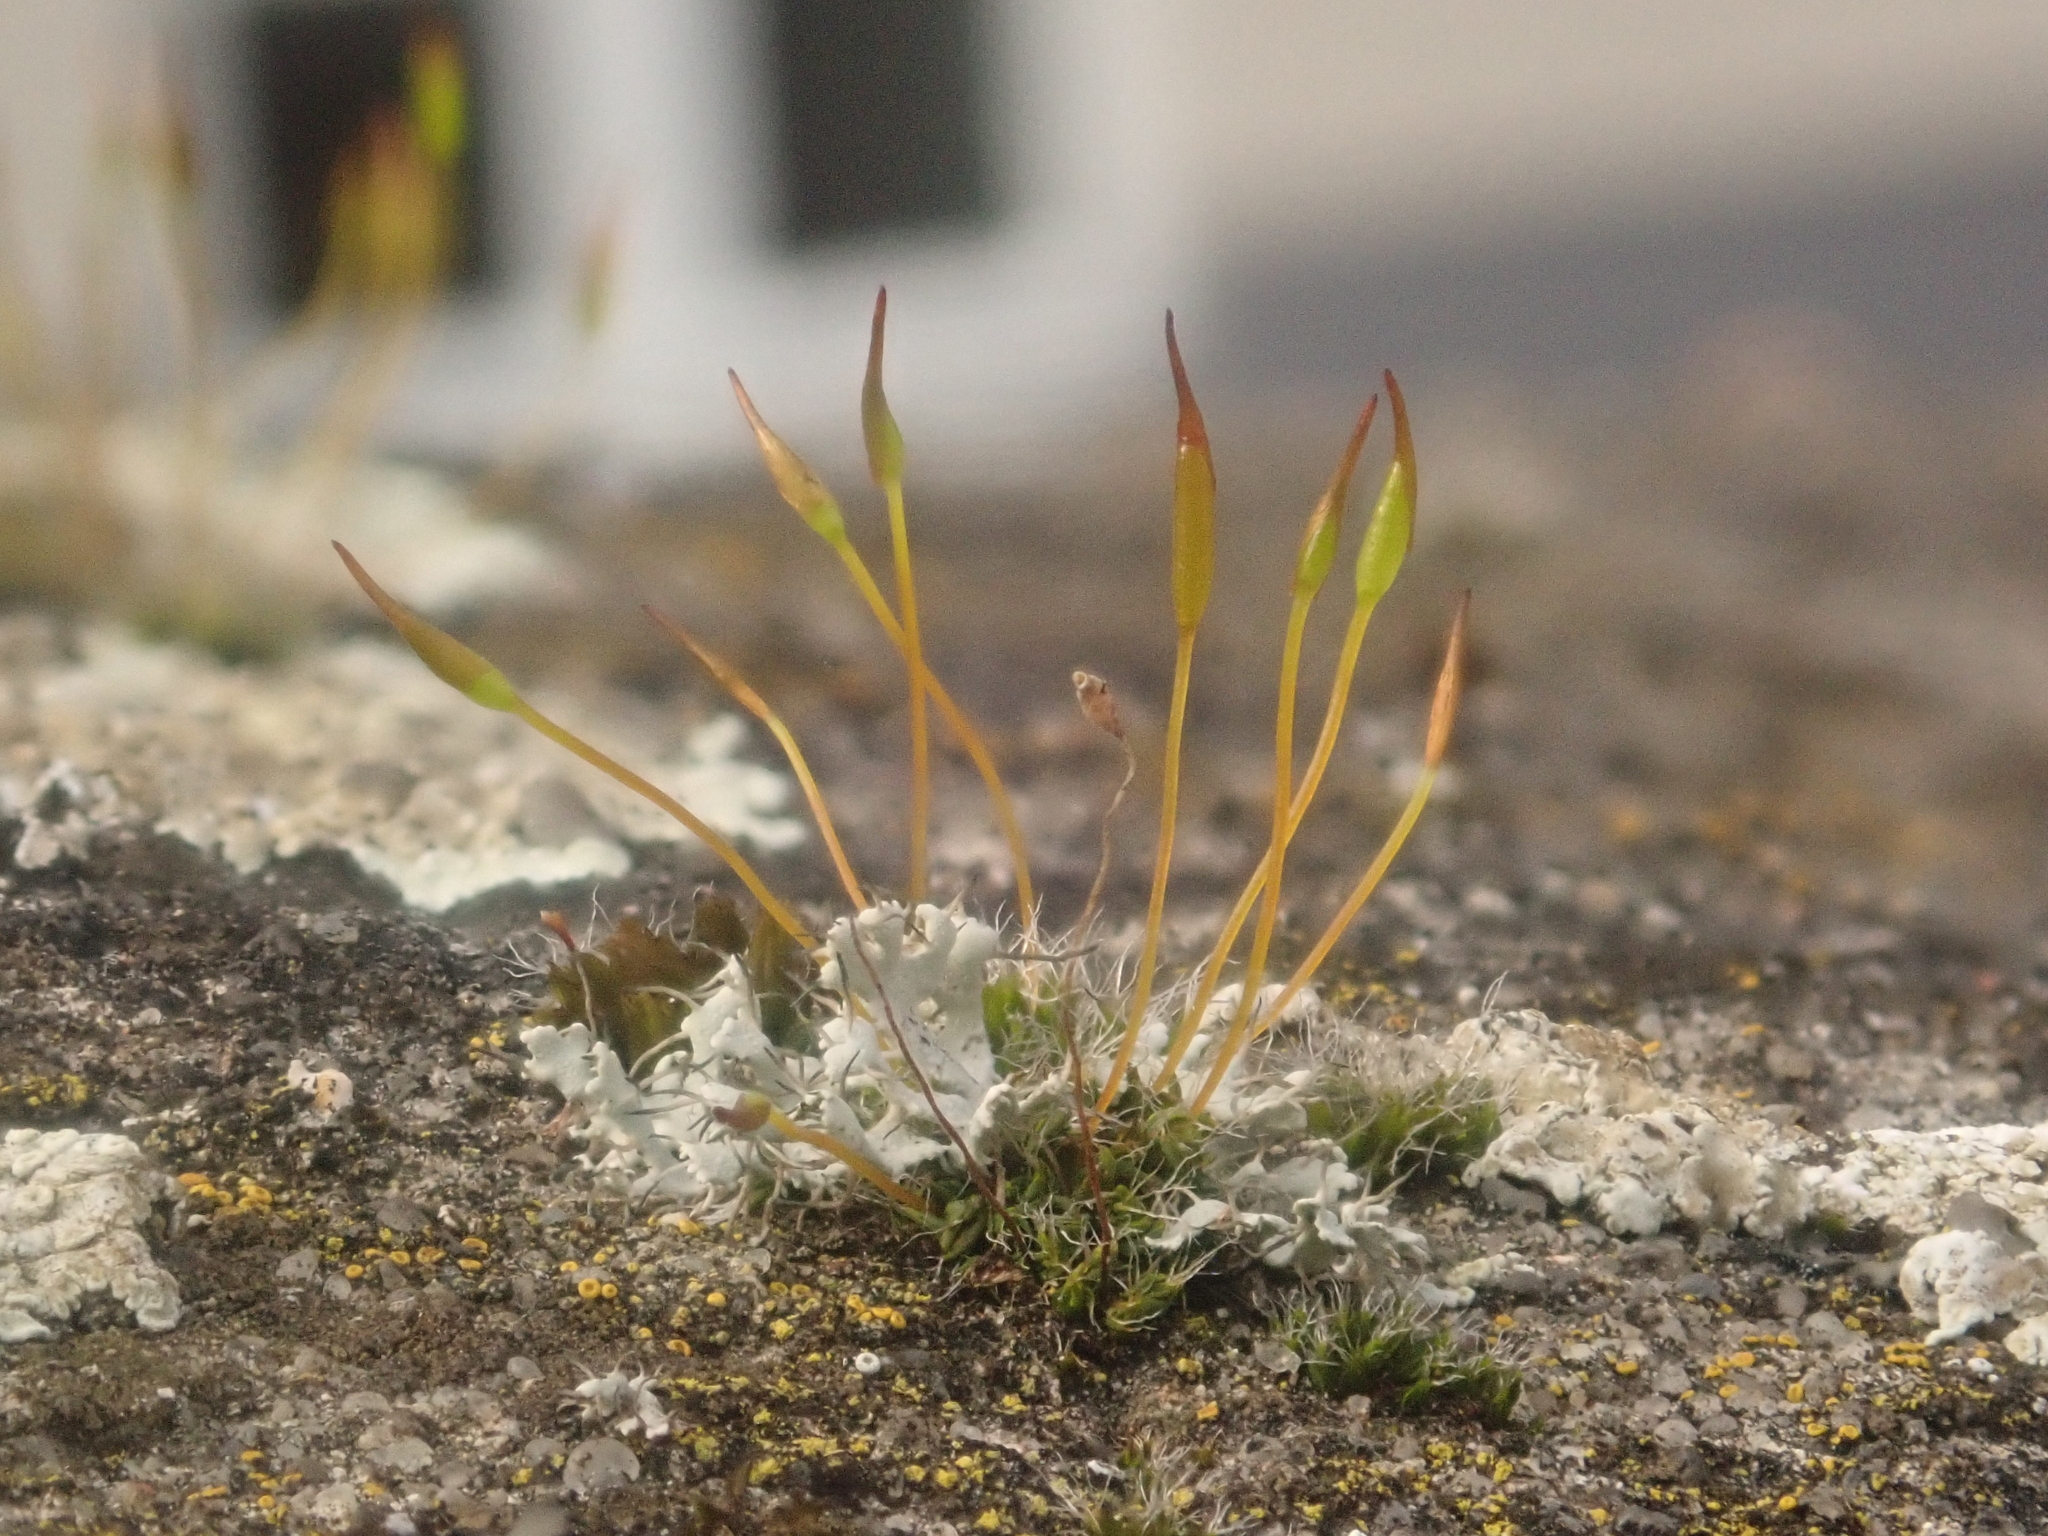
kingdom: Plantae
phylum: Bryophyta
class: Bryopsida
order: Pottiales
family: Pottiaceae
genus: Tortula
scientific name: Tortula muralis
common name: Wall screw-moss
